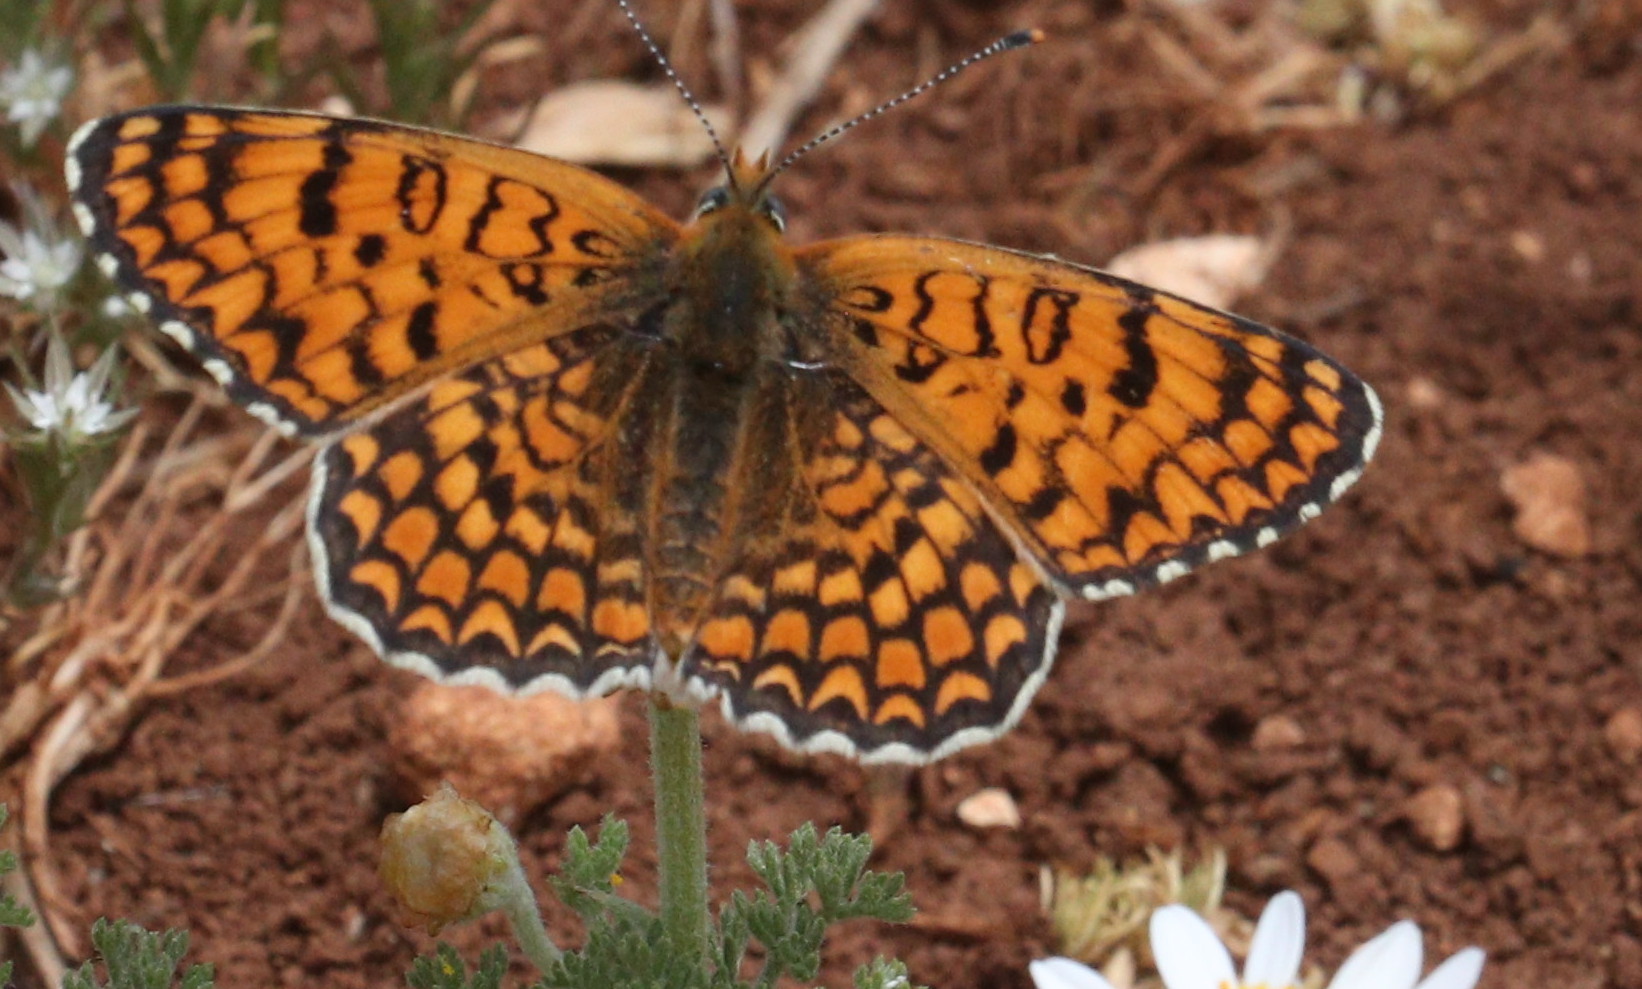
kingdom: Animalia
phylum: Arthropoda
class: Insecta
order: Lepidoptera
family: Nymphalidae
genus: Melitaea
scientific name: Melitaea phoebe
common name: Knapweed fritillary
